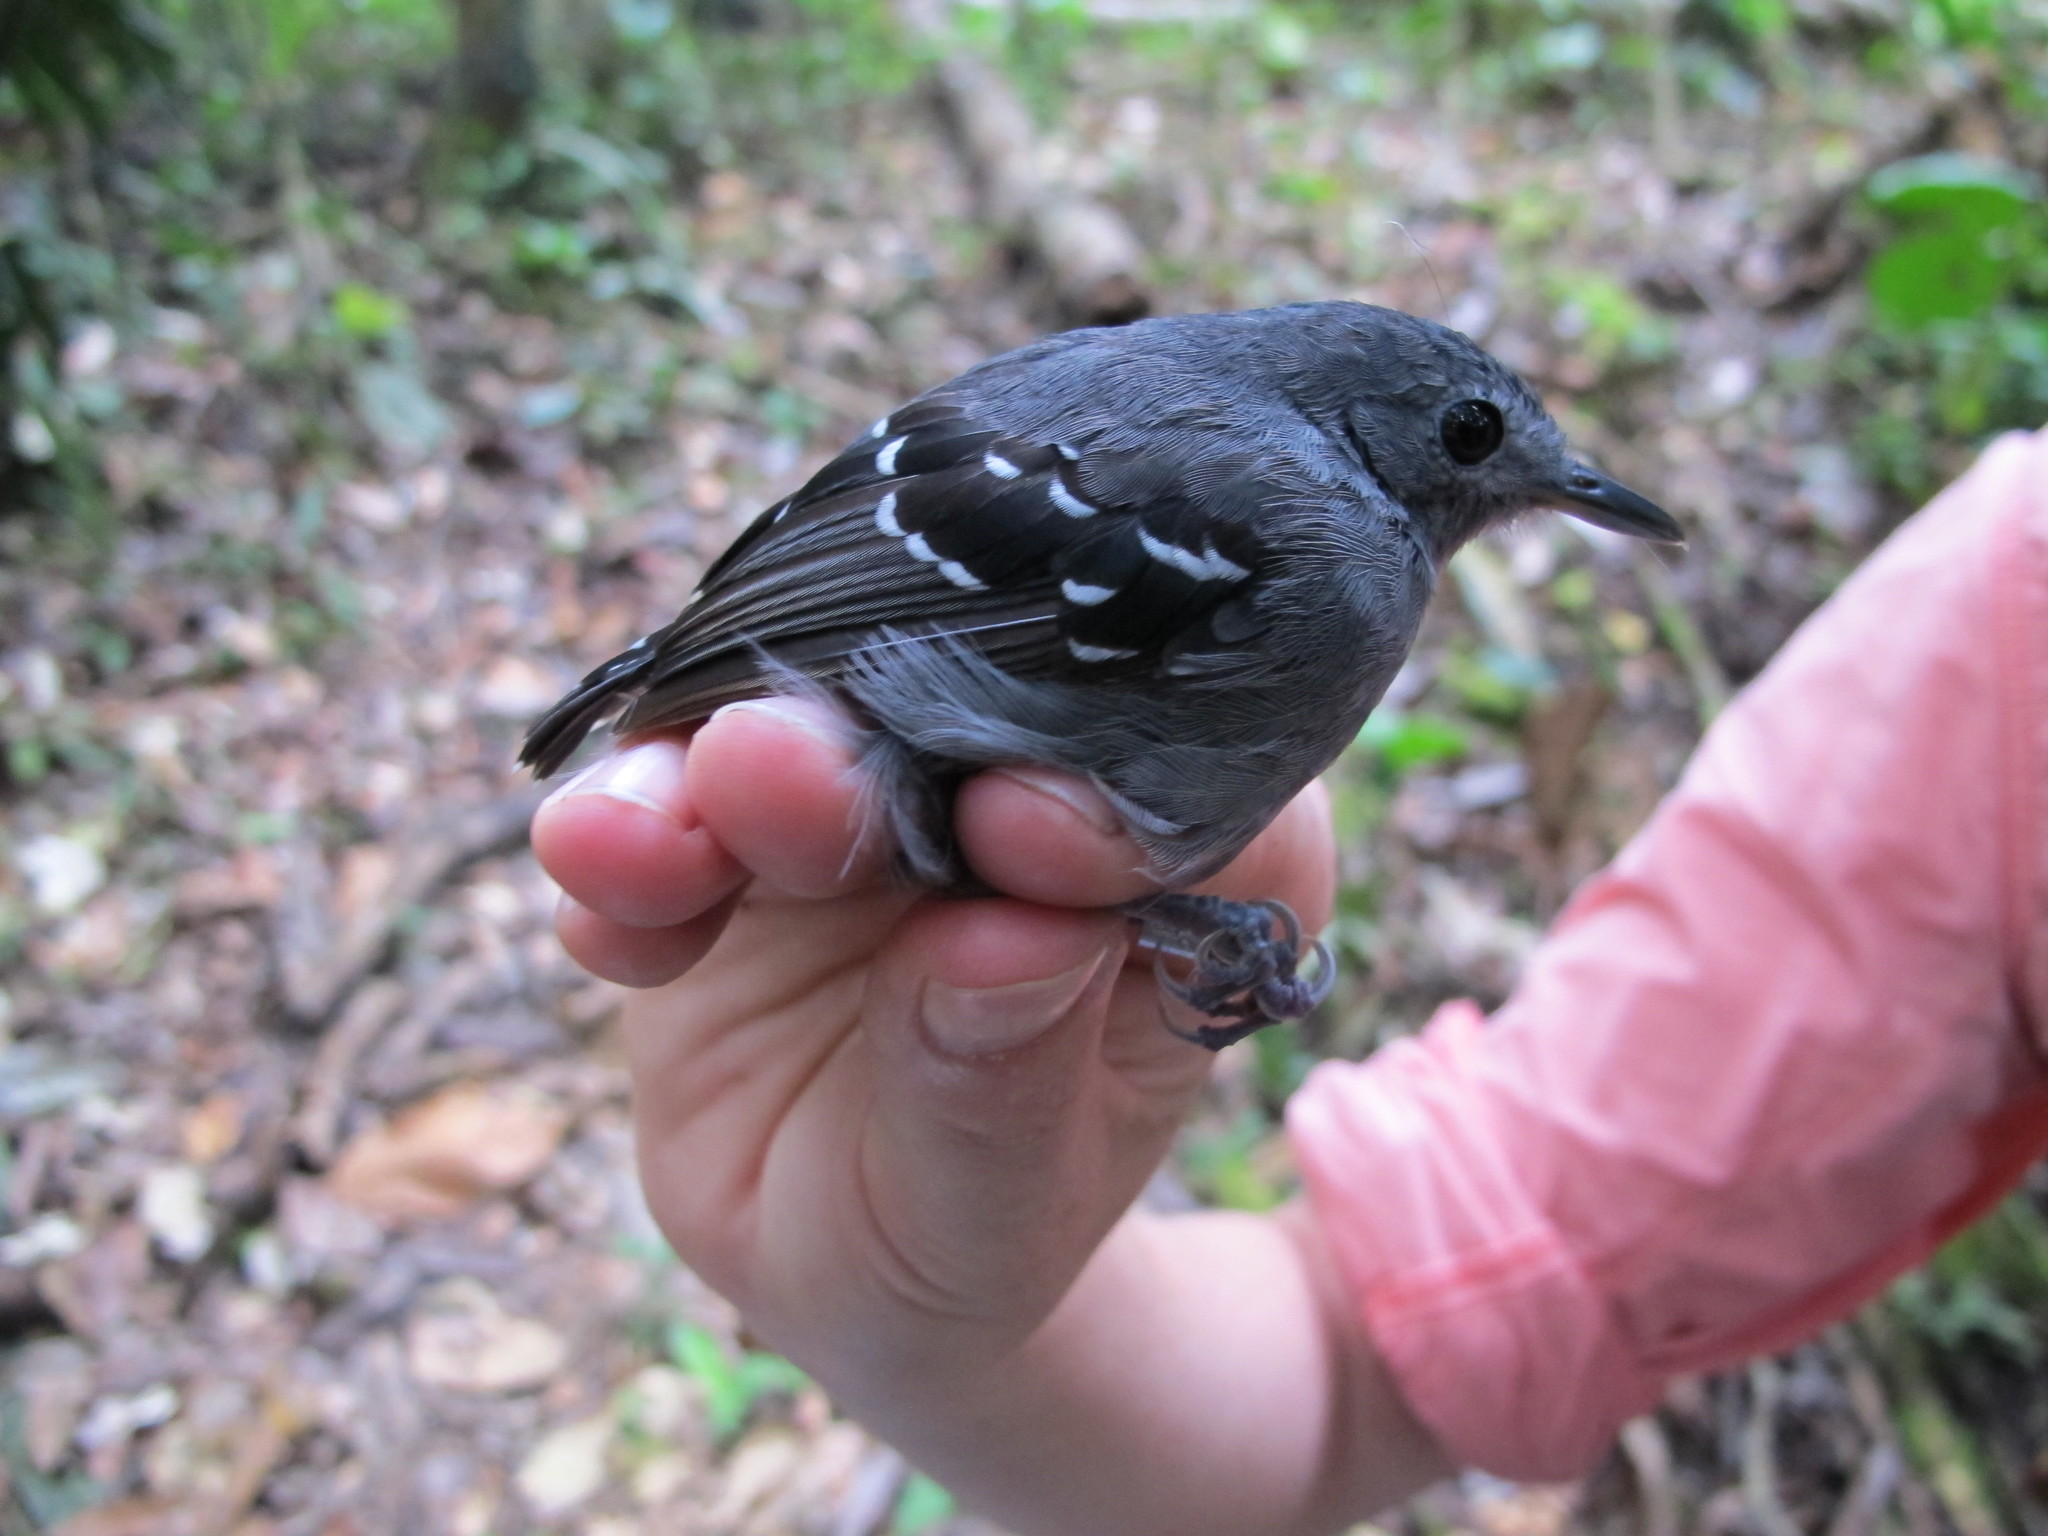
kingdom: Animalia
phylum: Chordata
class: Aves
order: Passeriformes
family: Thamnophilidae
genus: Isleria
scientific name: Isleria hauxwelli
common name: Plain-throated antwren
